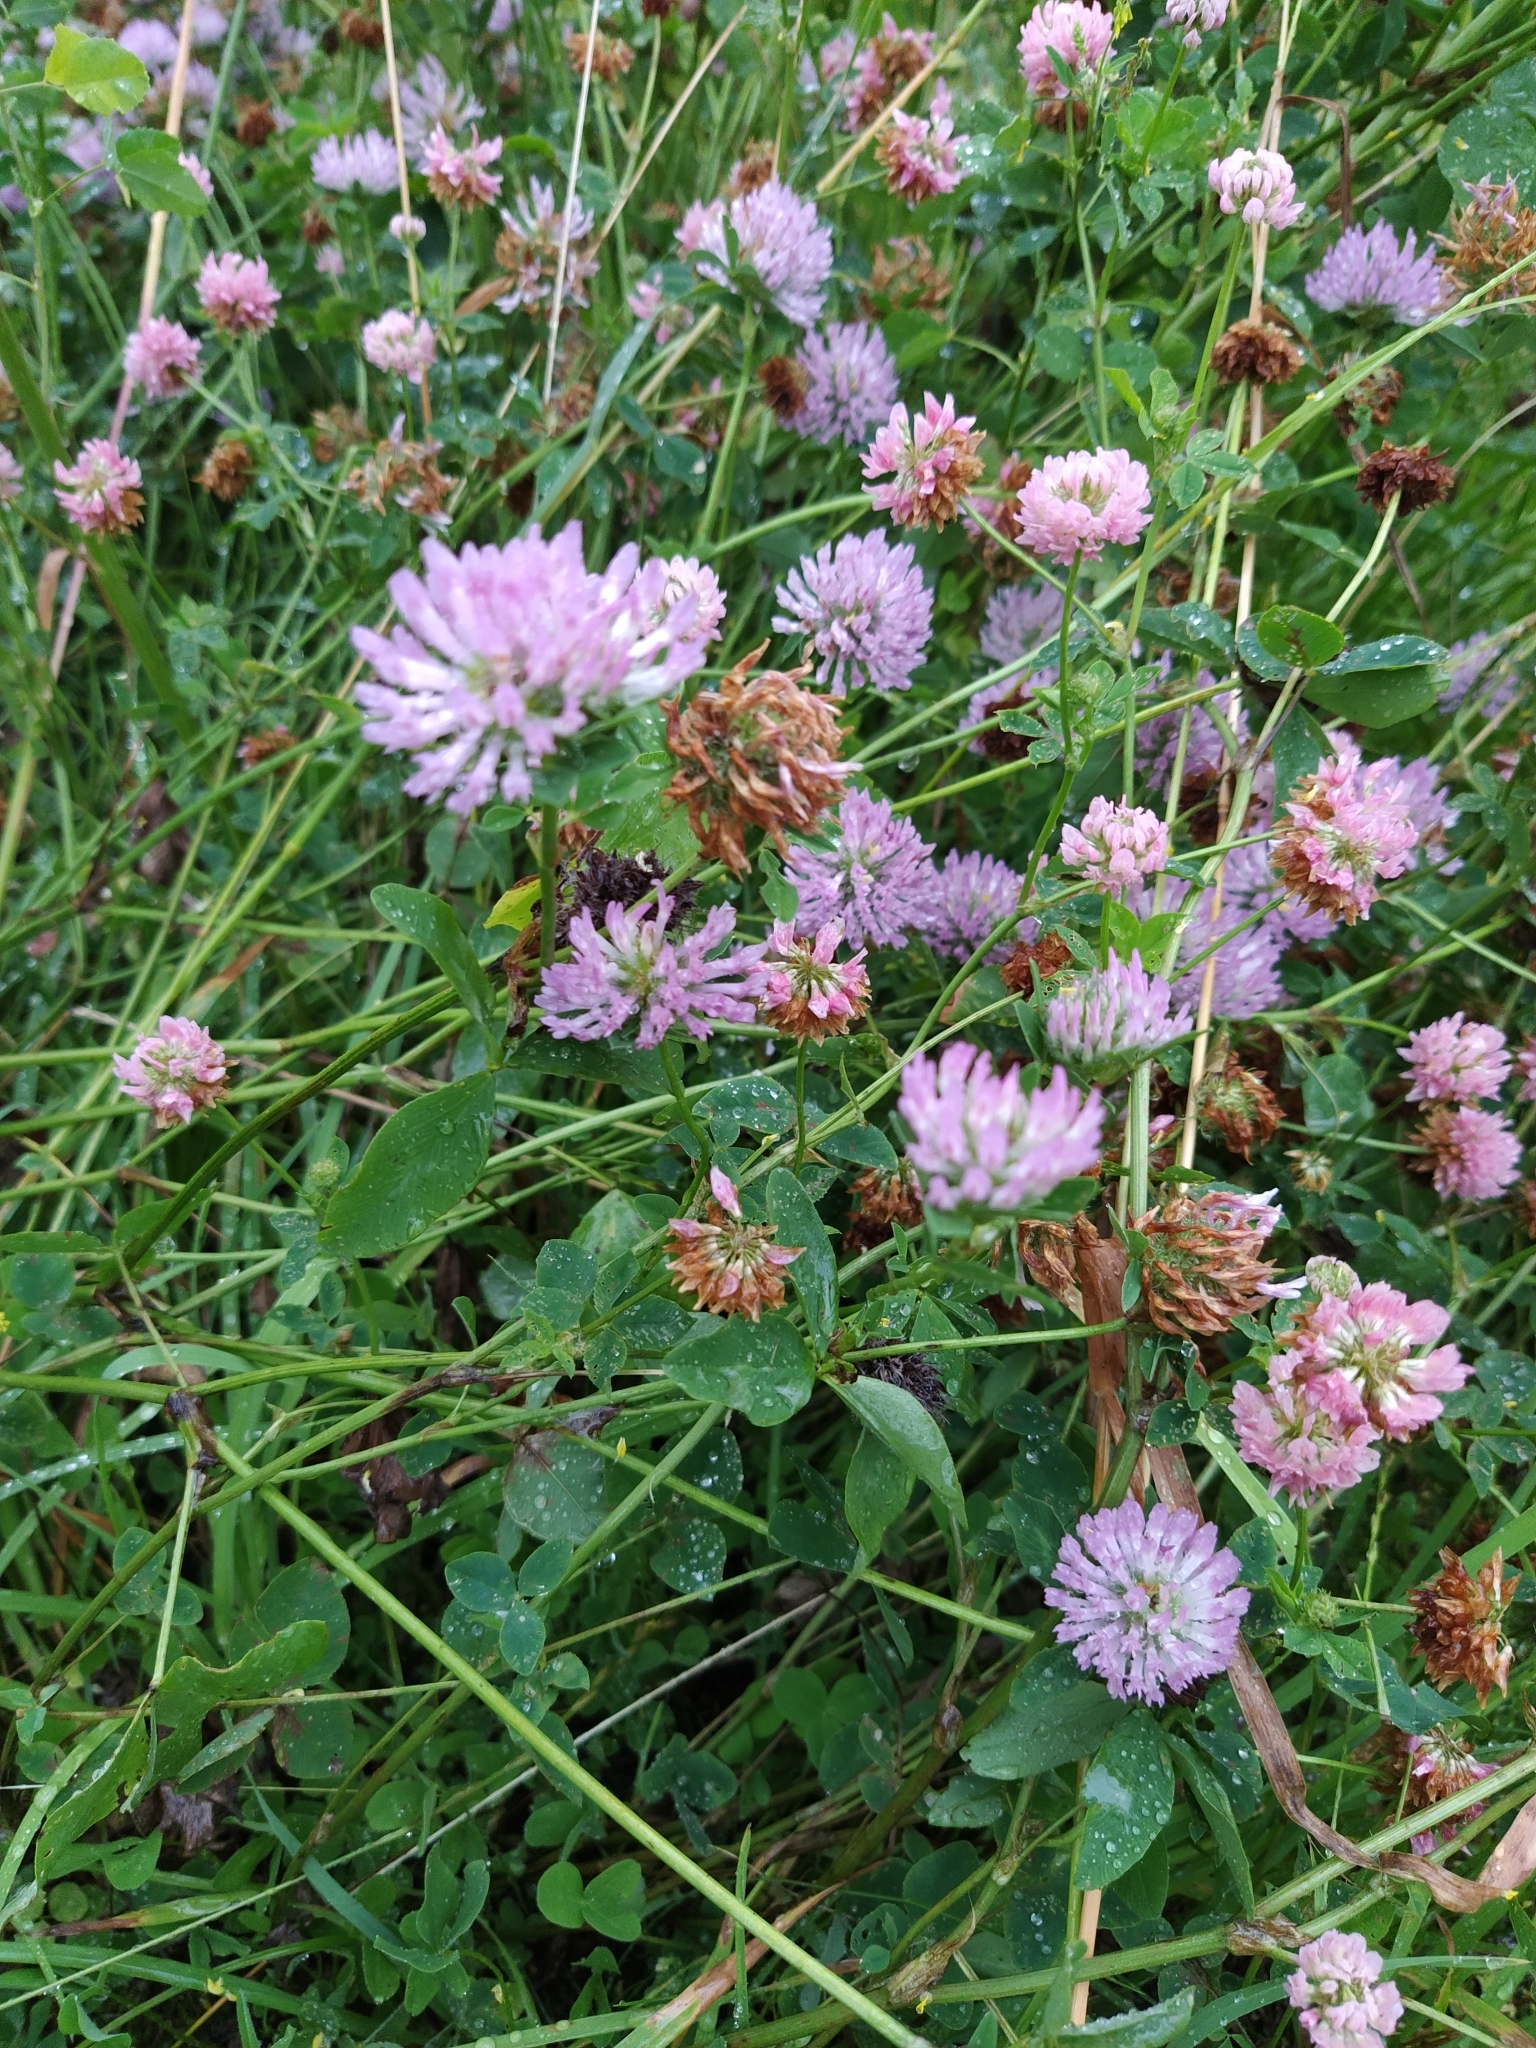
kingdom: Plantae
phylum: Tracheophyta
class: Magnoliopsida
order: Fabales
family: Fabaceae
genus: Trifolium
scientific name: Trifolium pratense
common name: Red clover
